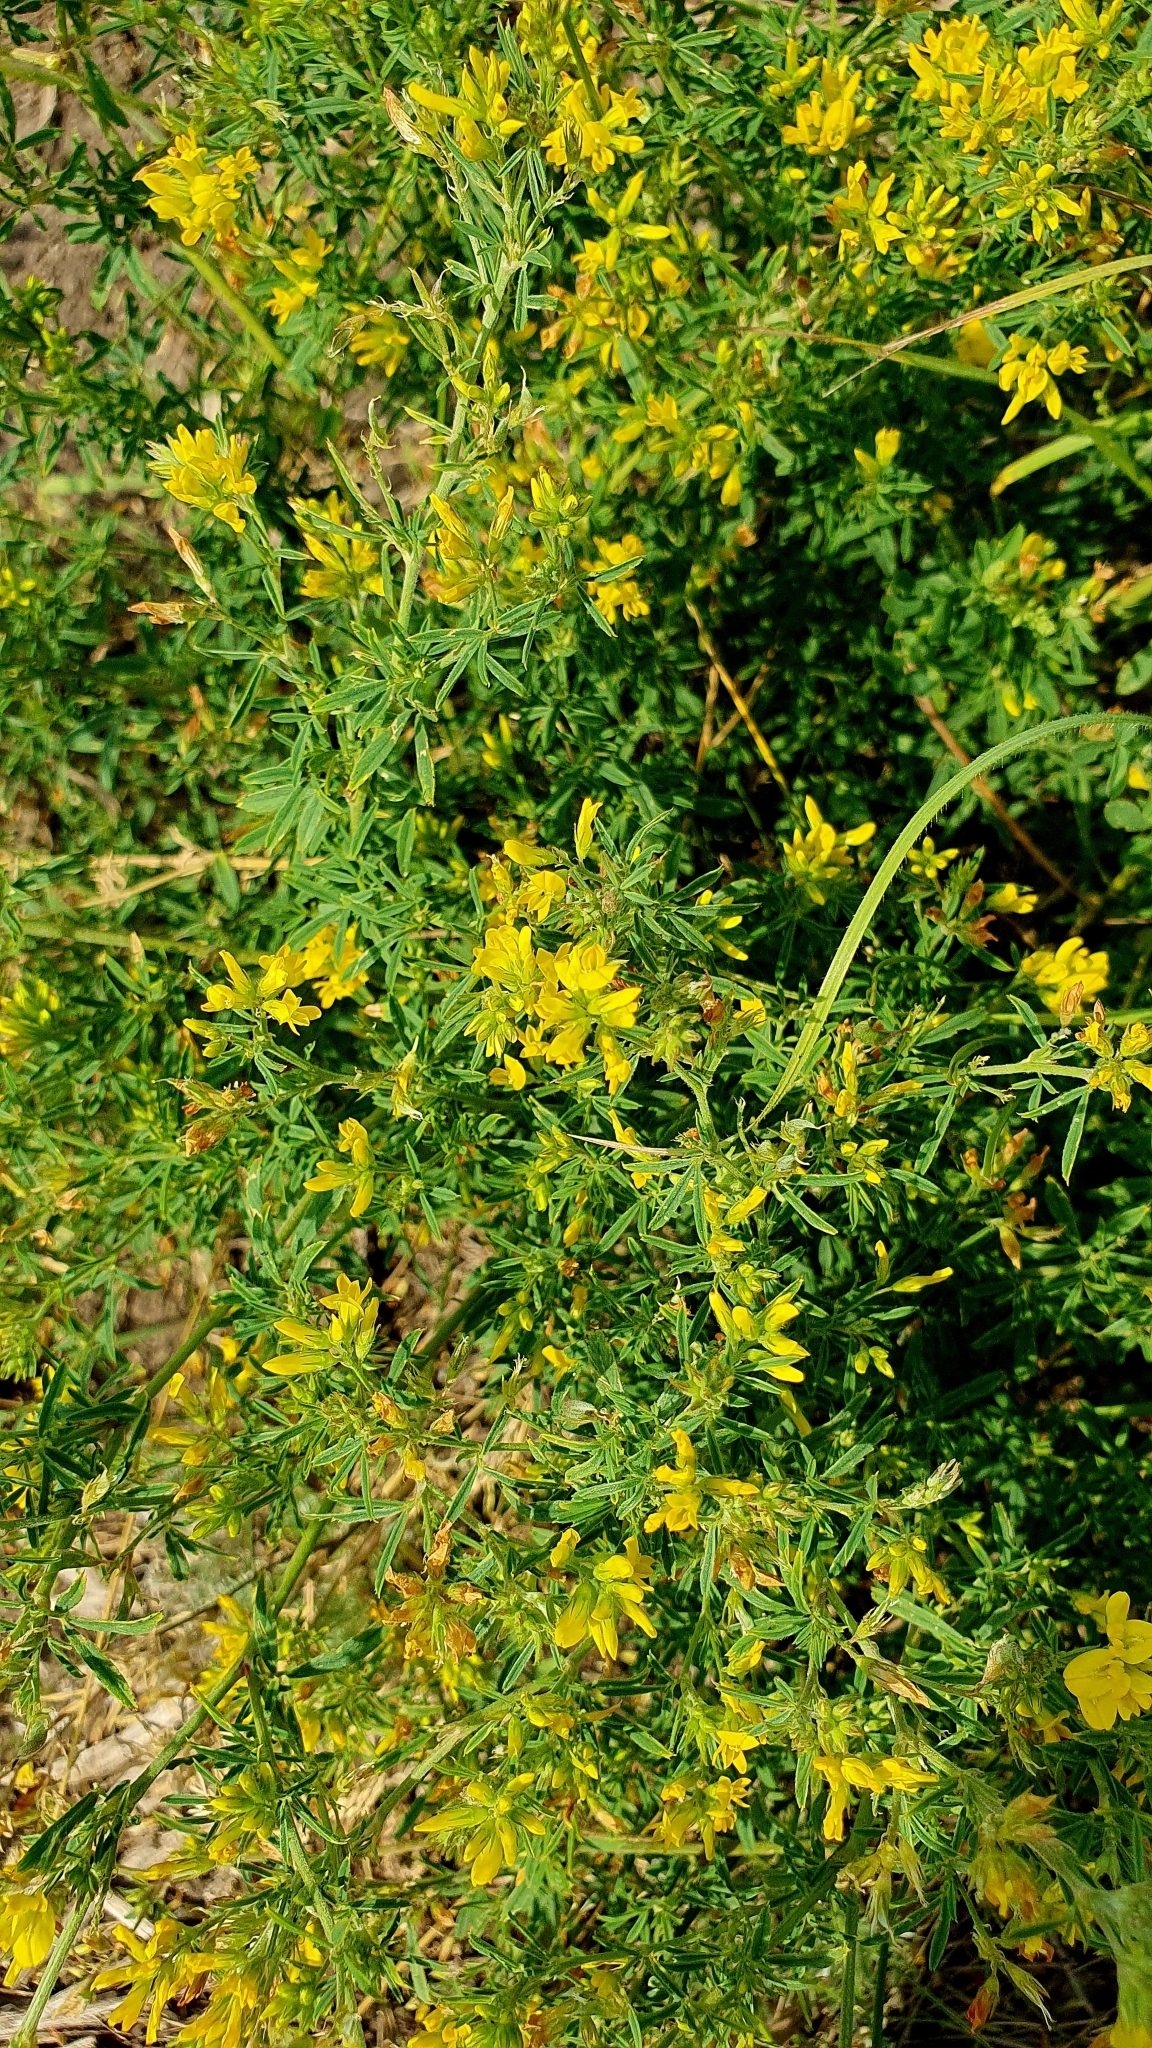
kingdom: Plantae
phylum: Tracheophyta
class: Magnoliopsida
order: Fabales
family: Fabaceae
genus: Medicago
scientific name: Medicago falcata
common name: Sickle medick
